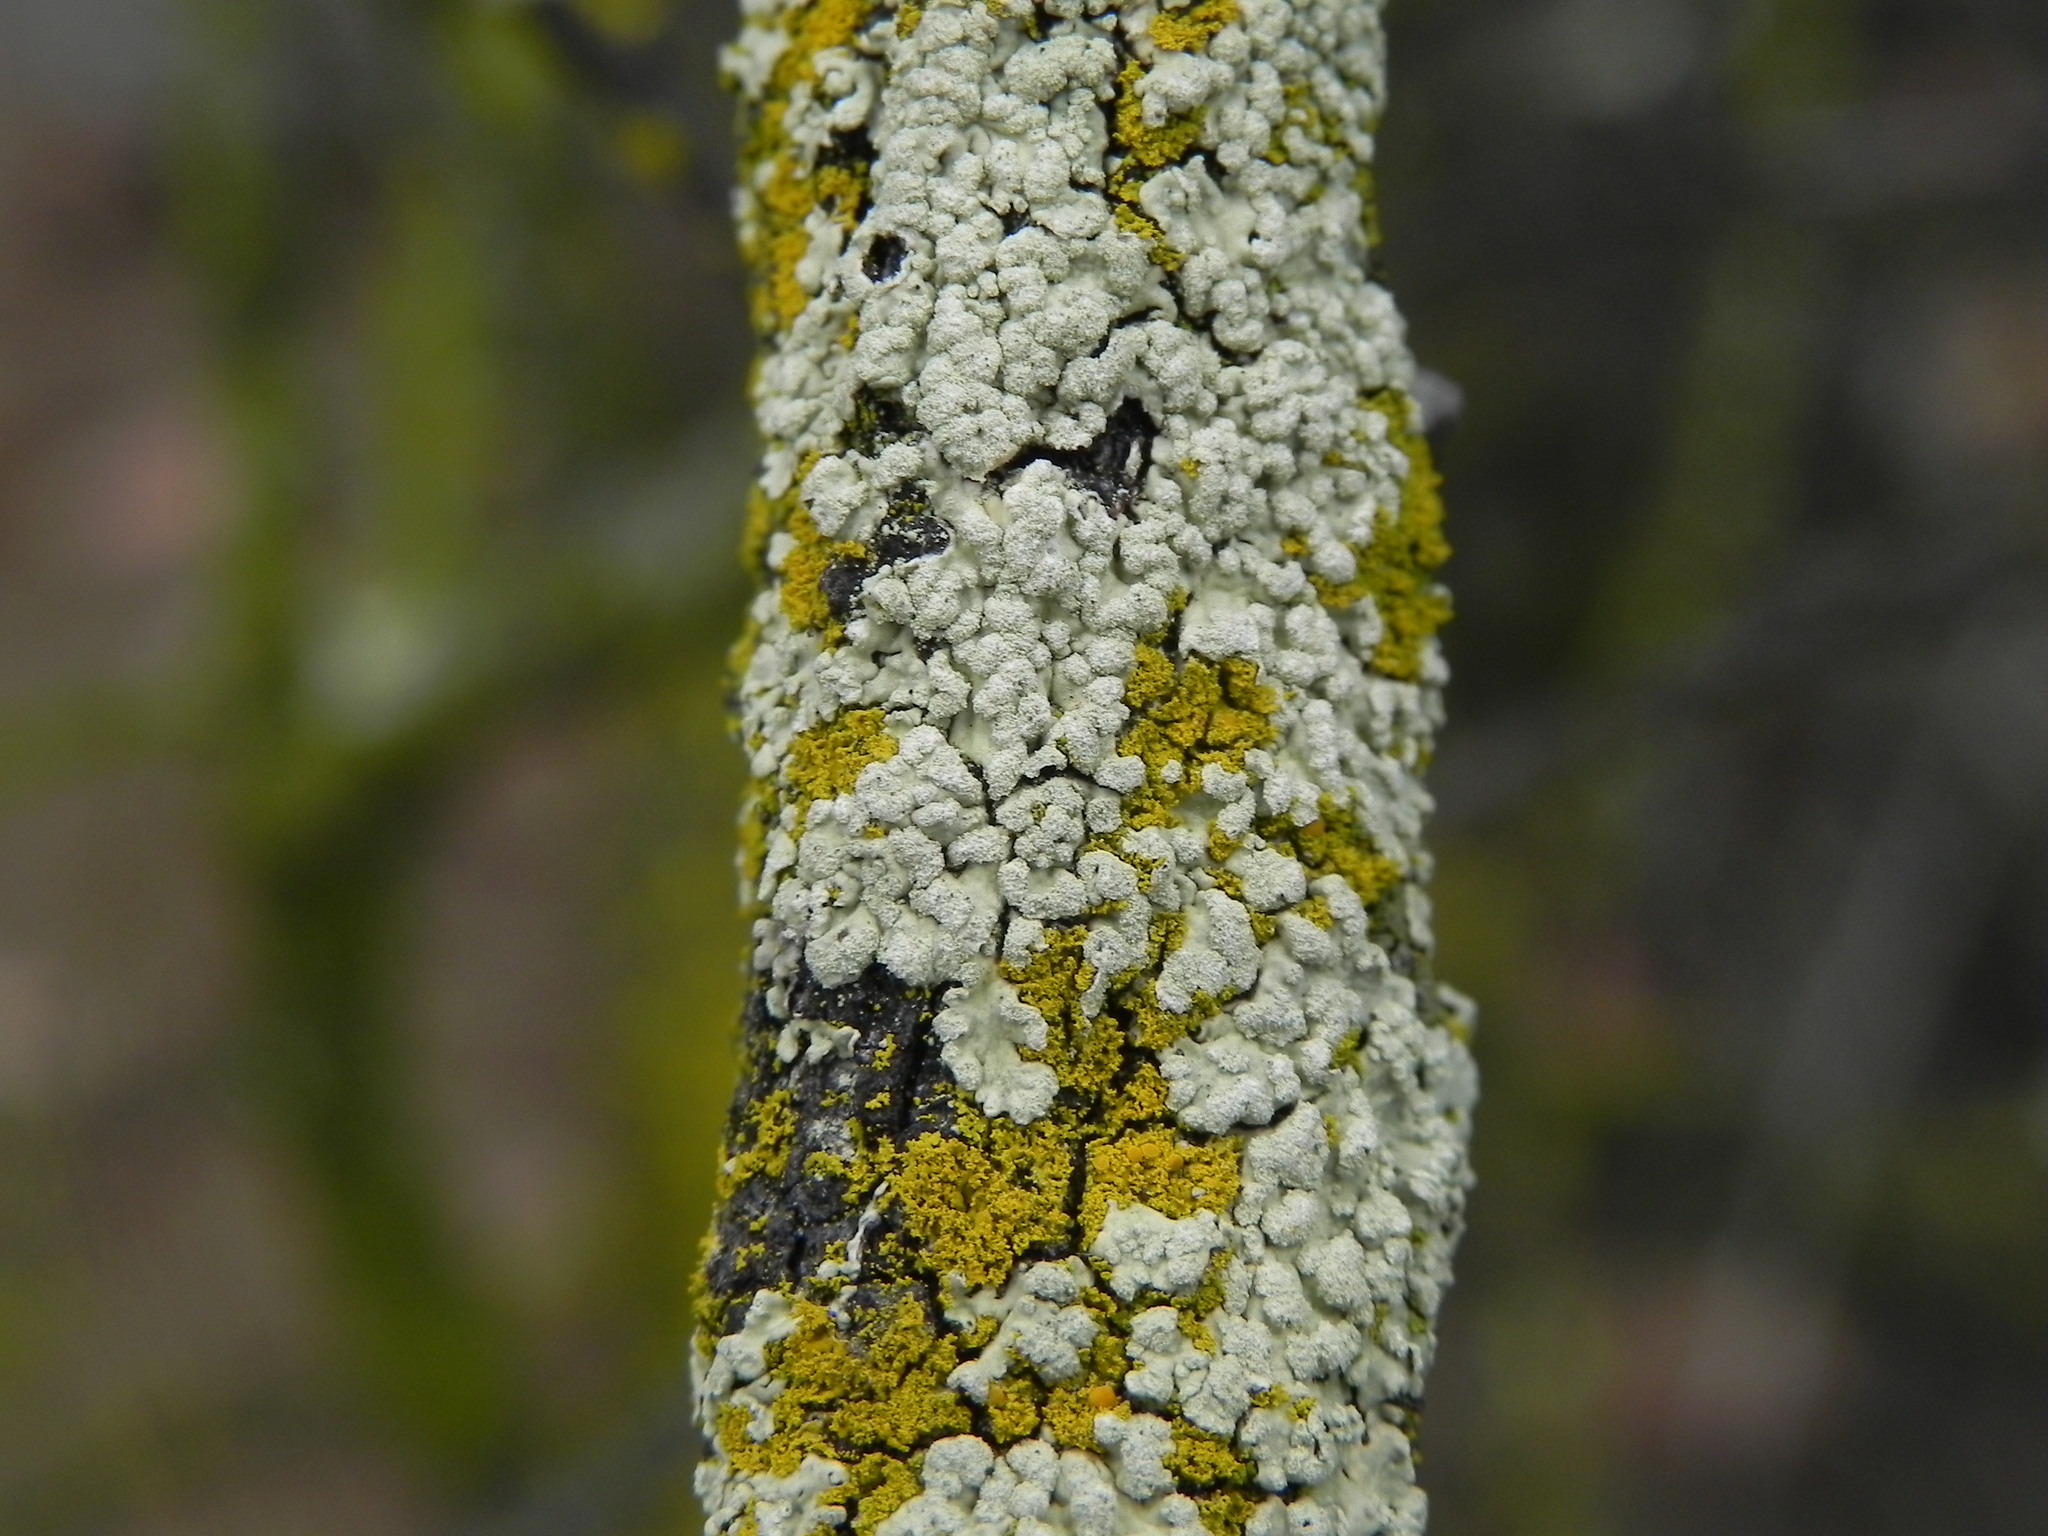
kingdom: Fungi
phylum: Ascomycota
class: Lecanoromycetes
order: Lecanorales
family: Parmeliaceae
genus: Flavoparmelia
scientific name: Flavoparmelia subcapitata
